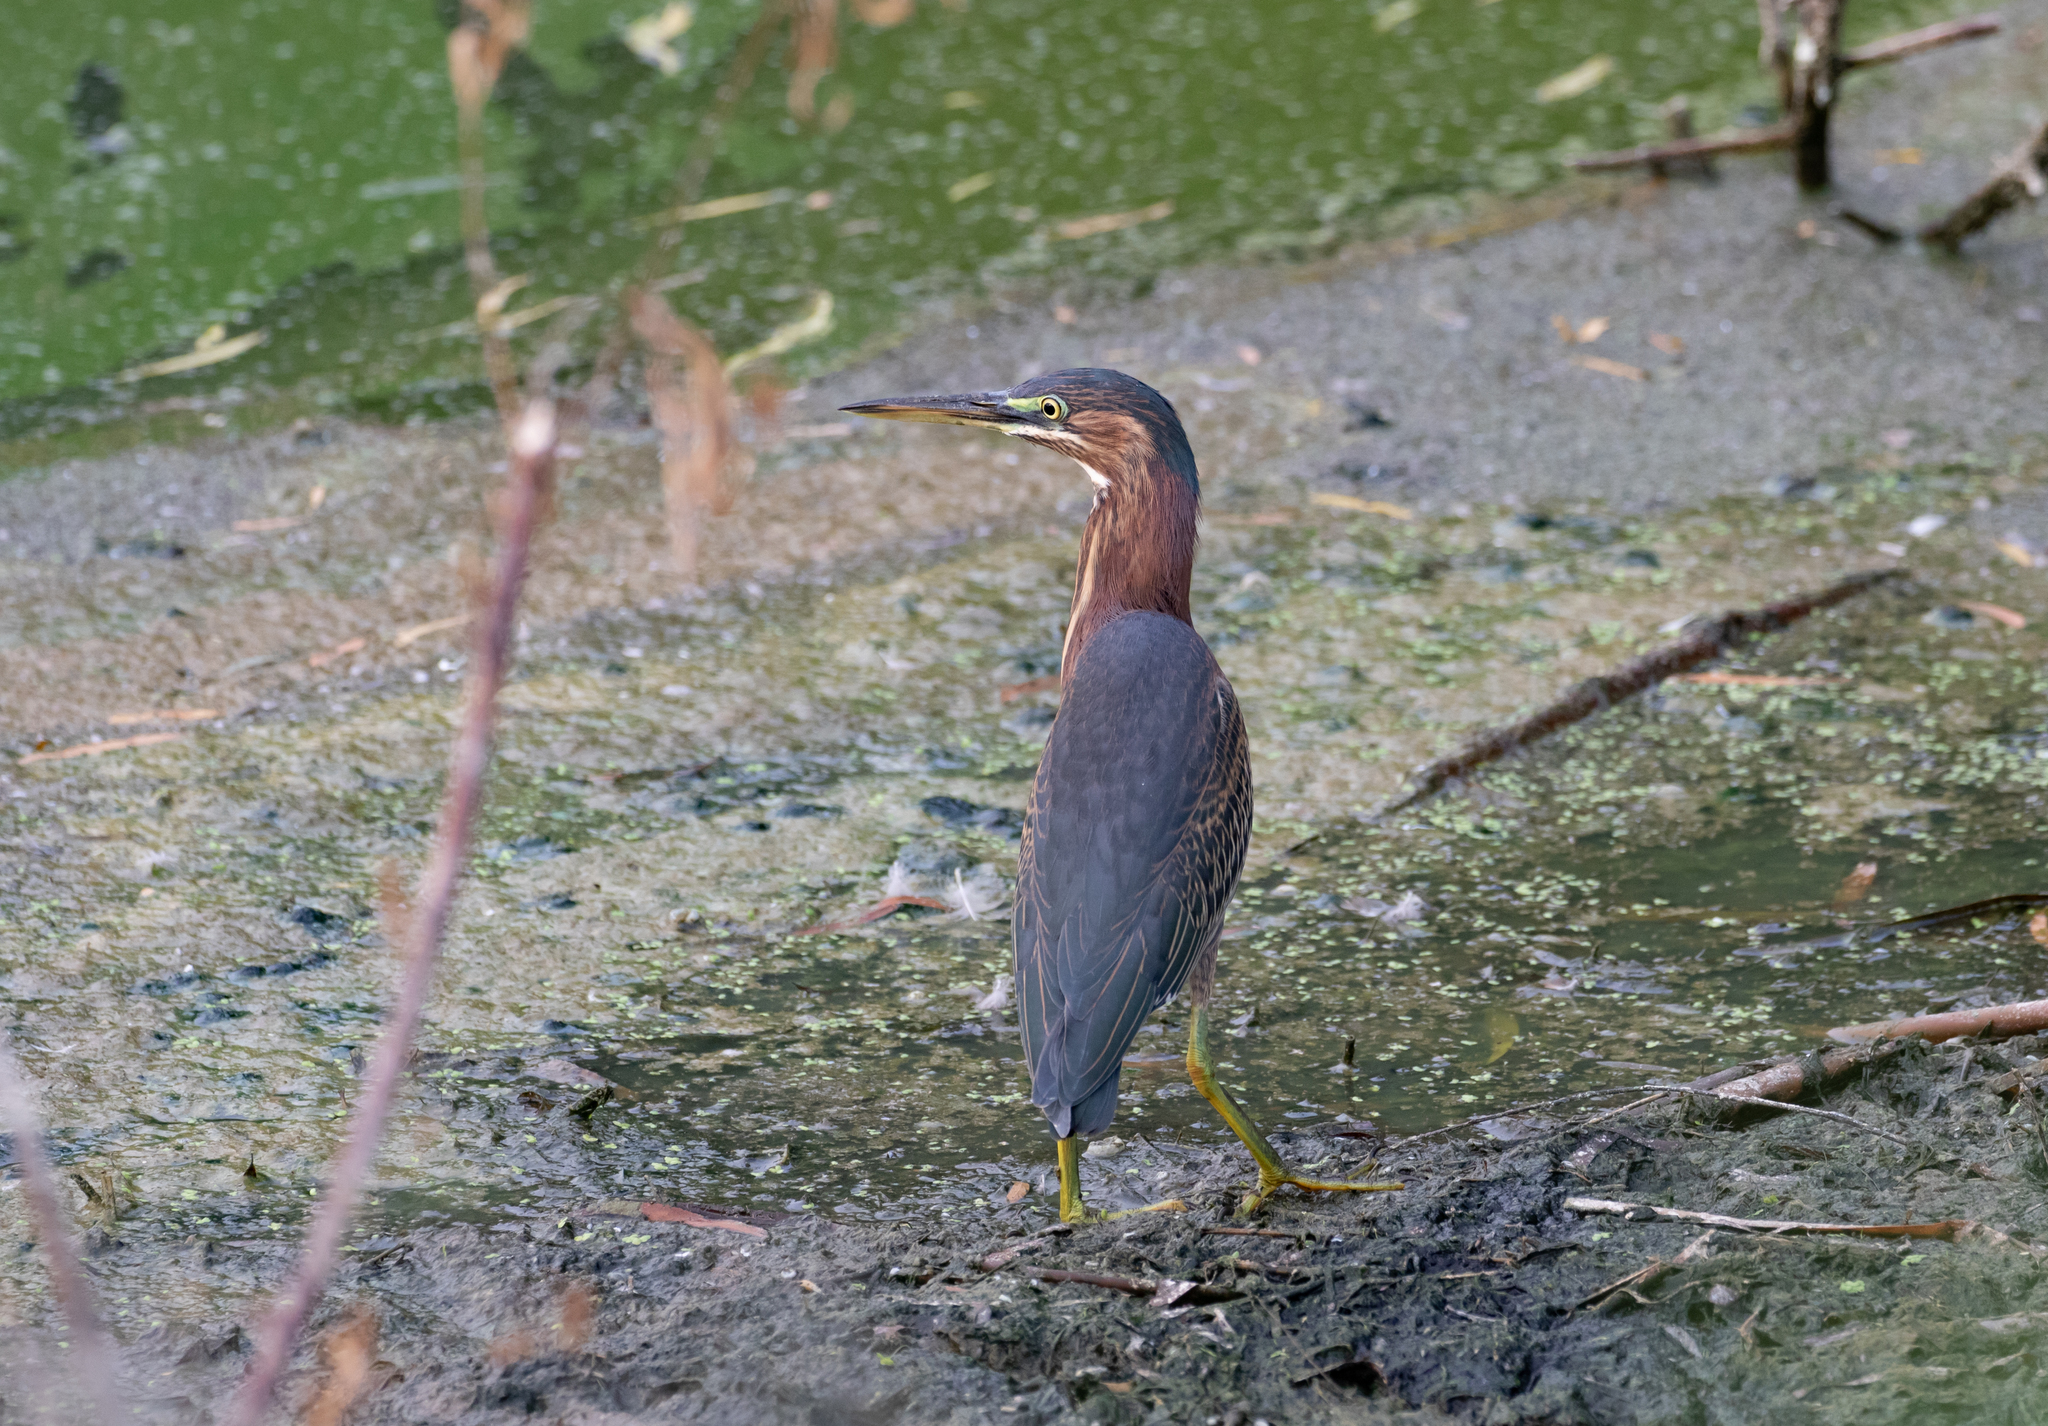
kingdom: Animalia
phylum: Chordata
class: Aves
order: Pelecaniformes
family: Ardeidae
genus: Butorides
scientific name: Butorides virescens
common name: Green heron
